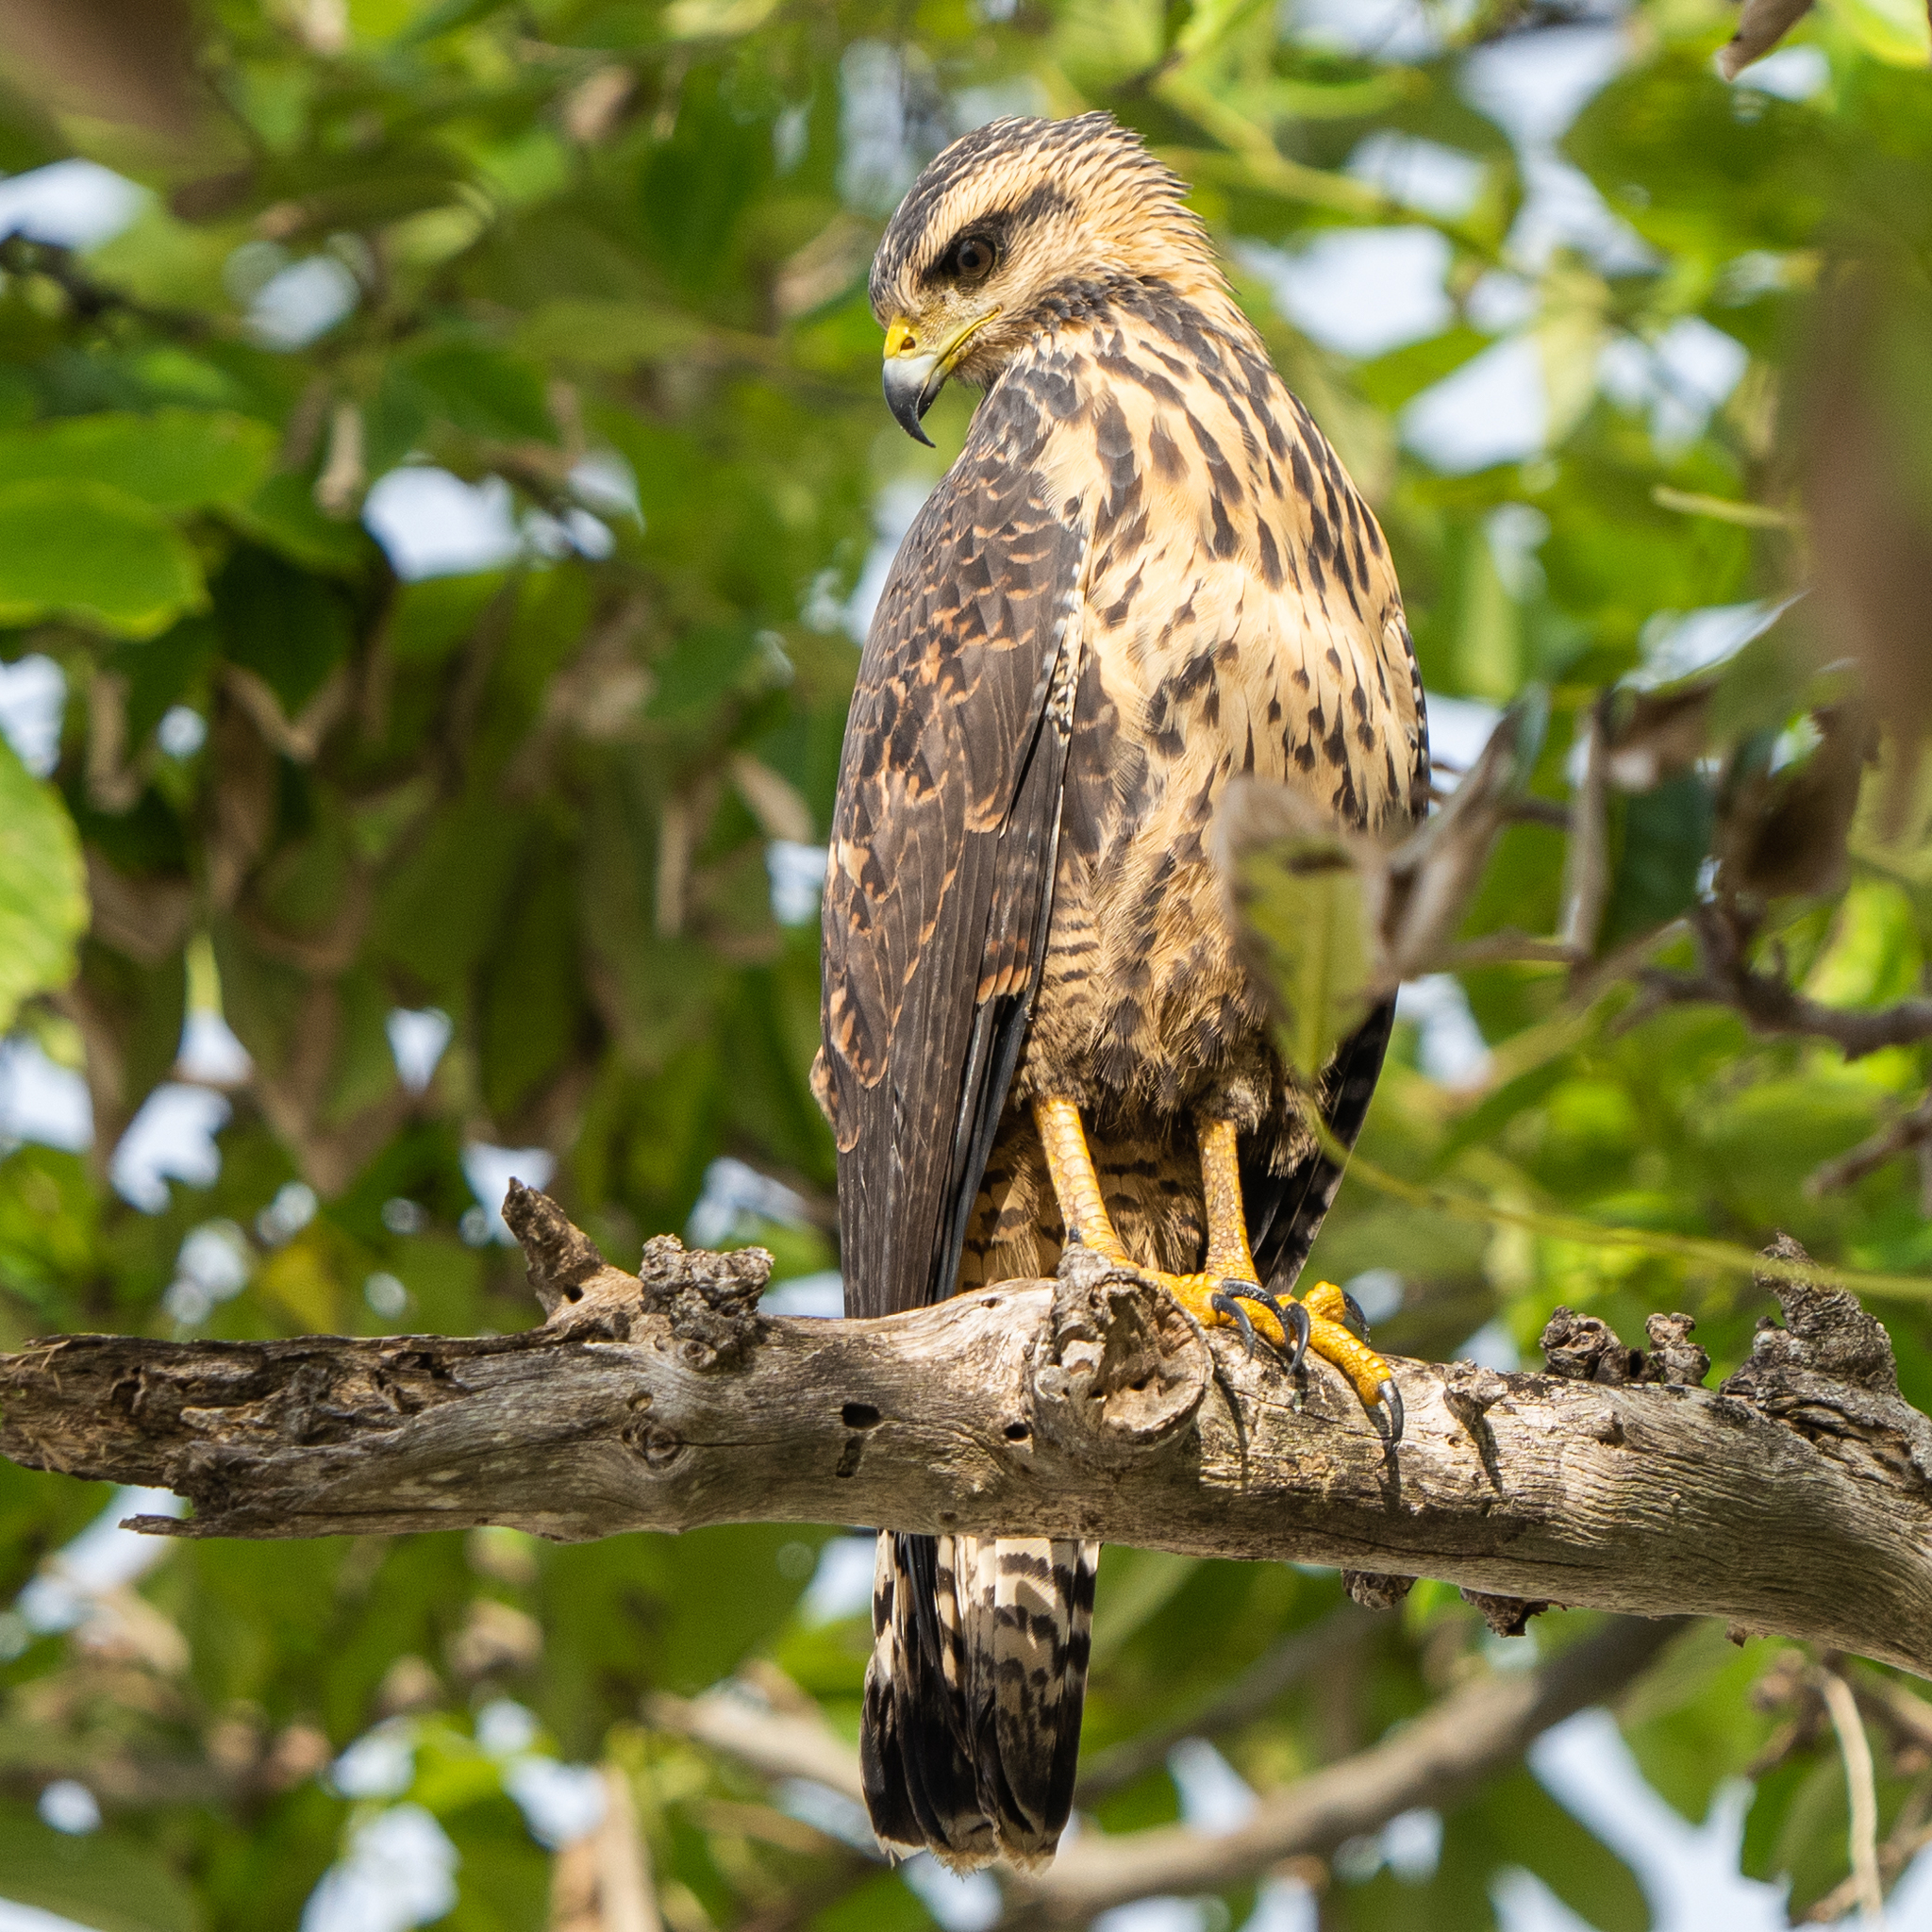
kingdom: Animalia
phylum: Chordata
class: Aves
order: Accipitriformes
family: Accipitridae
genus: Buteogallus
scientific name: Buteogallus urubitinga
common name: Great black hawk
